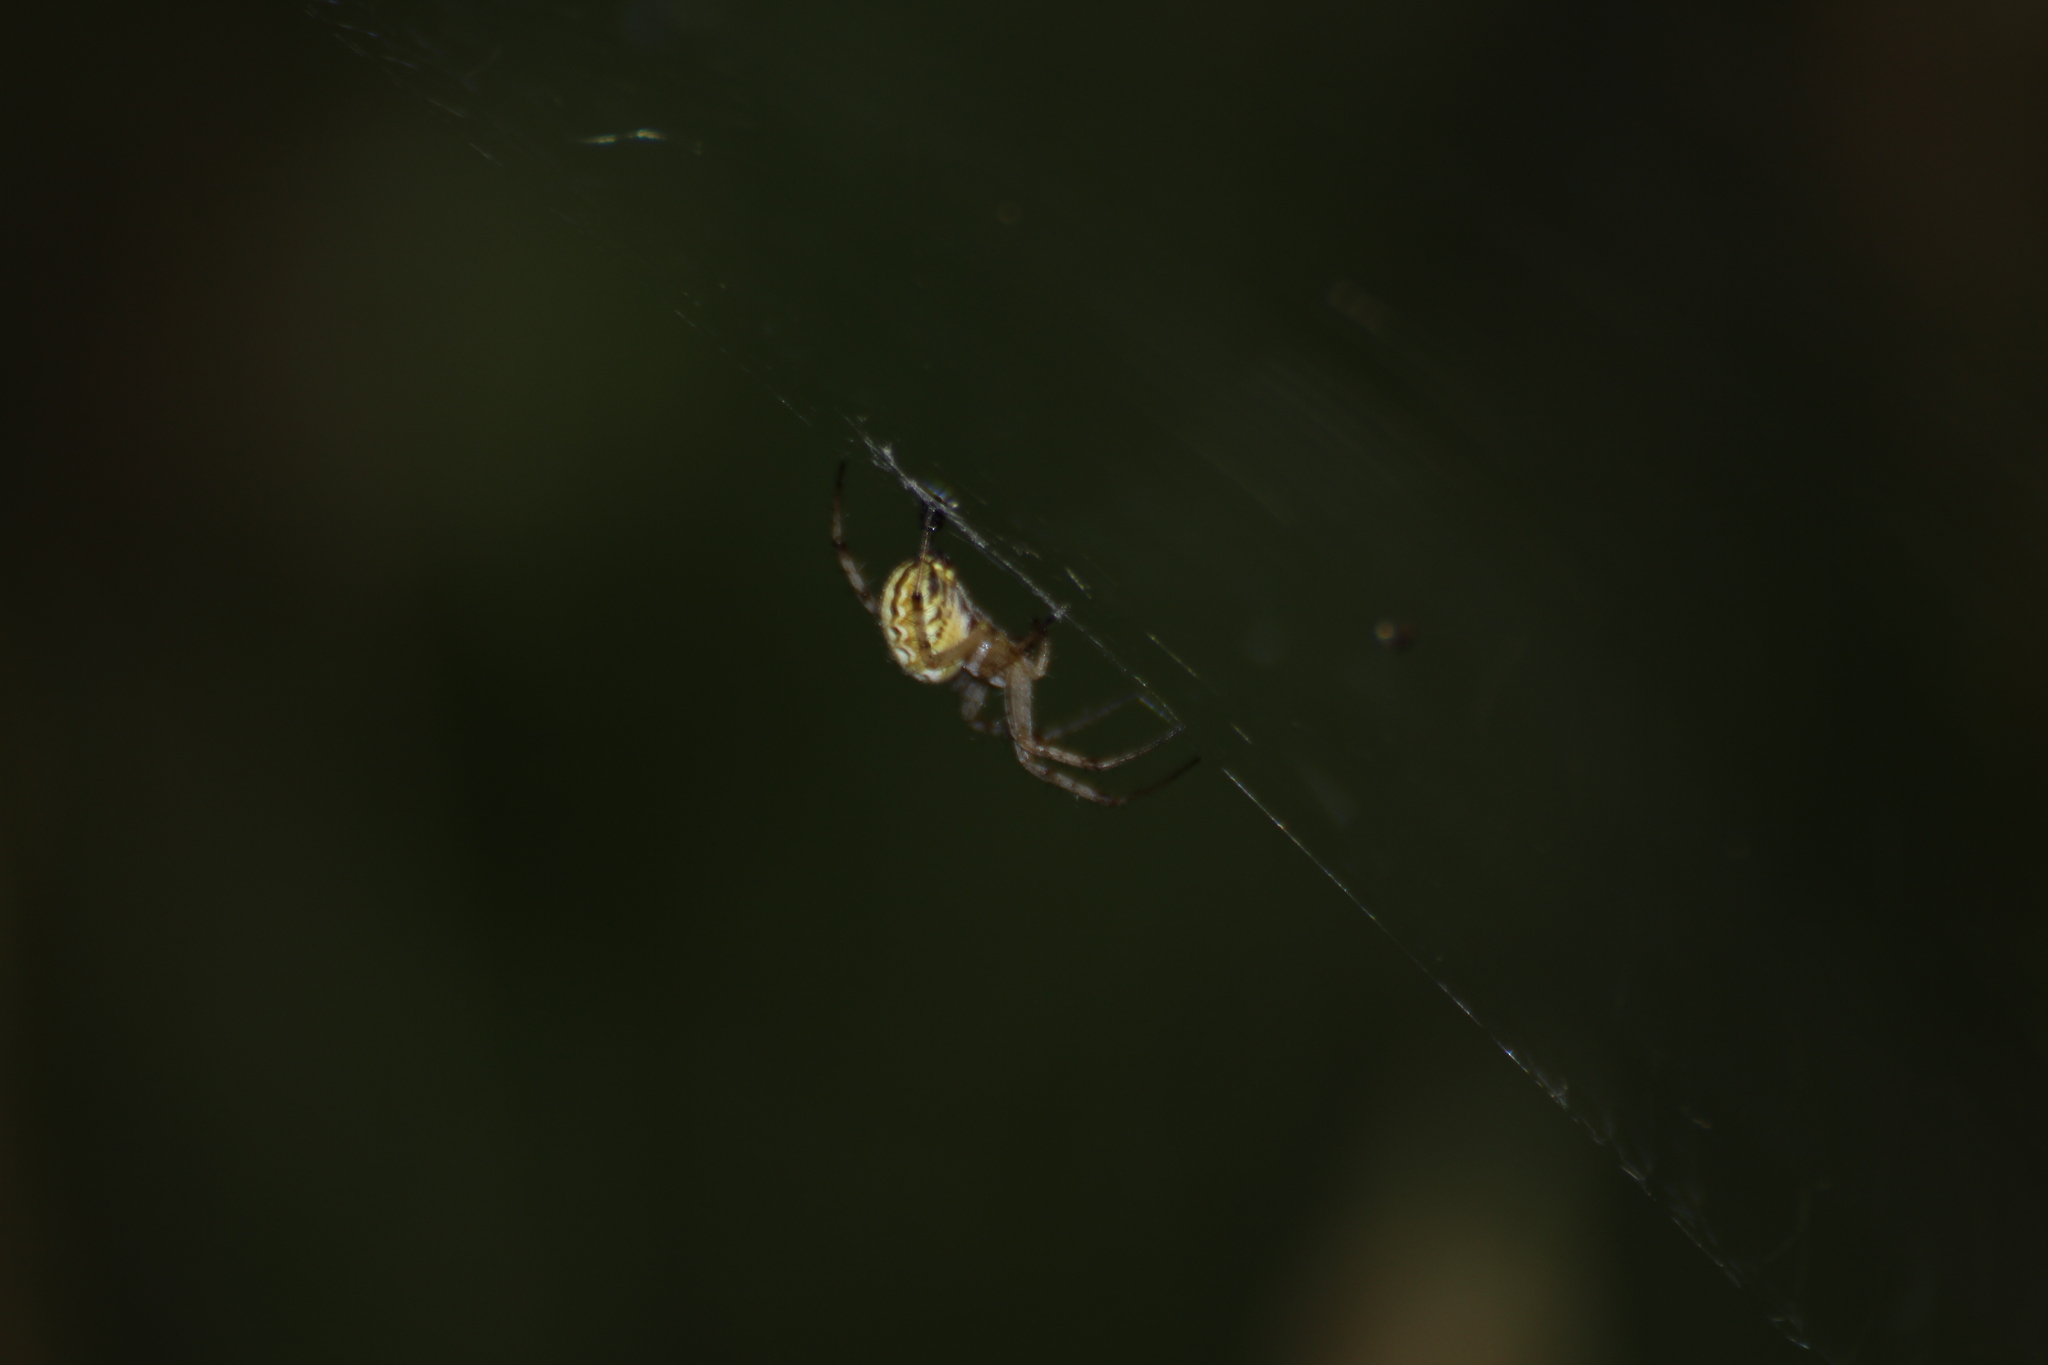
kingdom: Animalia
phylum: Arthropoda
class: Arachnida
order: Araneae
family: Araneidae
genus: Neoscona
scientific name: Neoscona adianta
